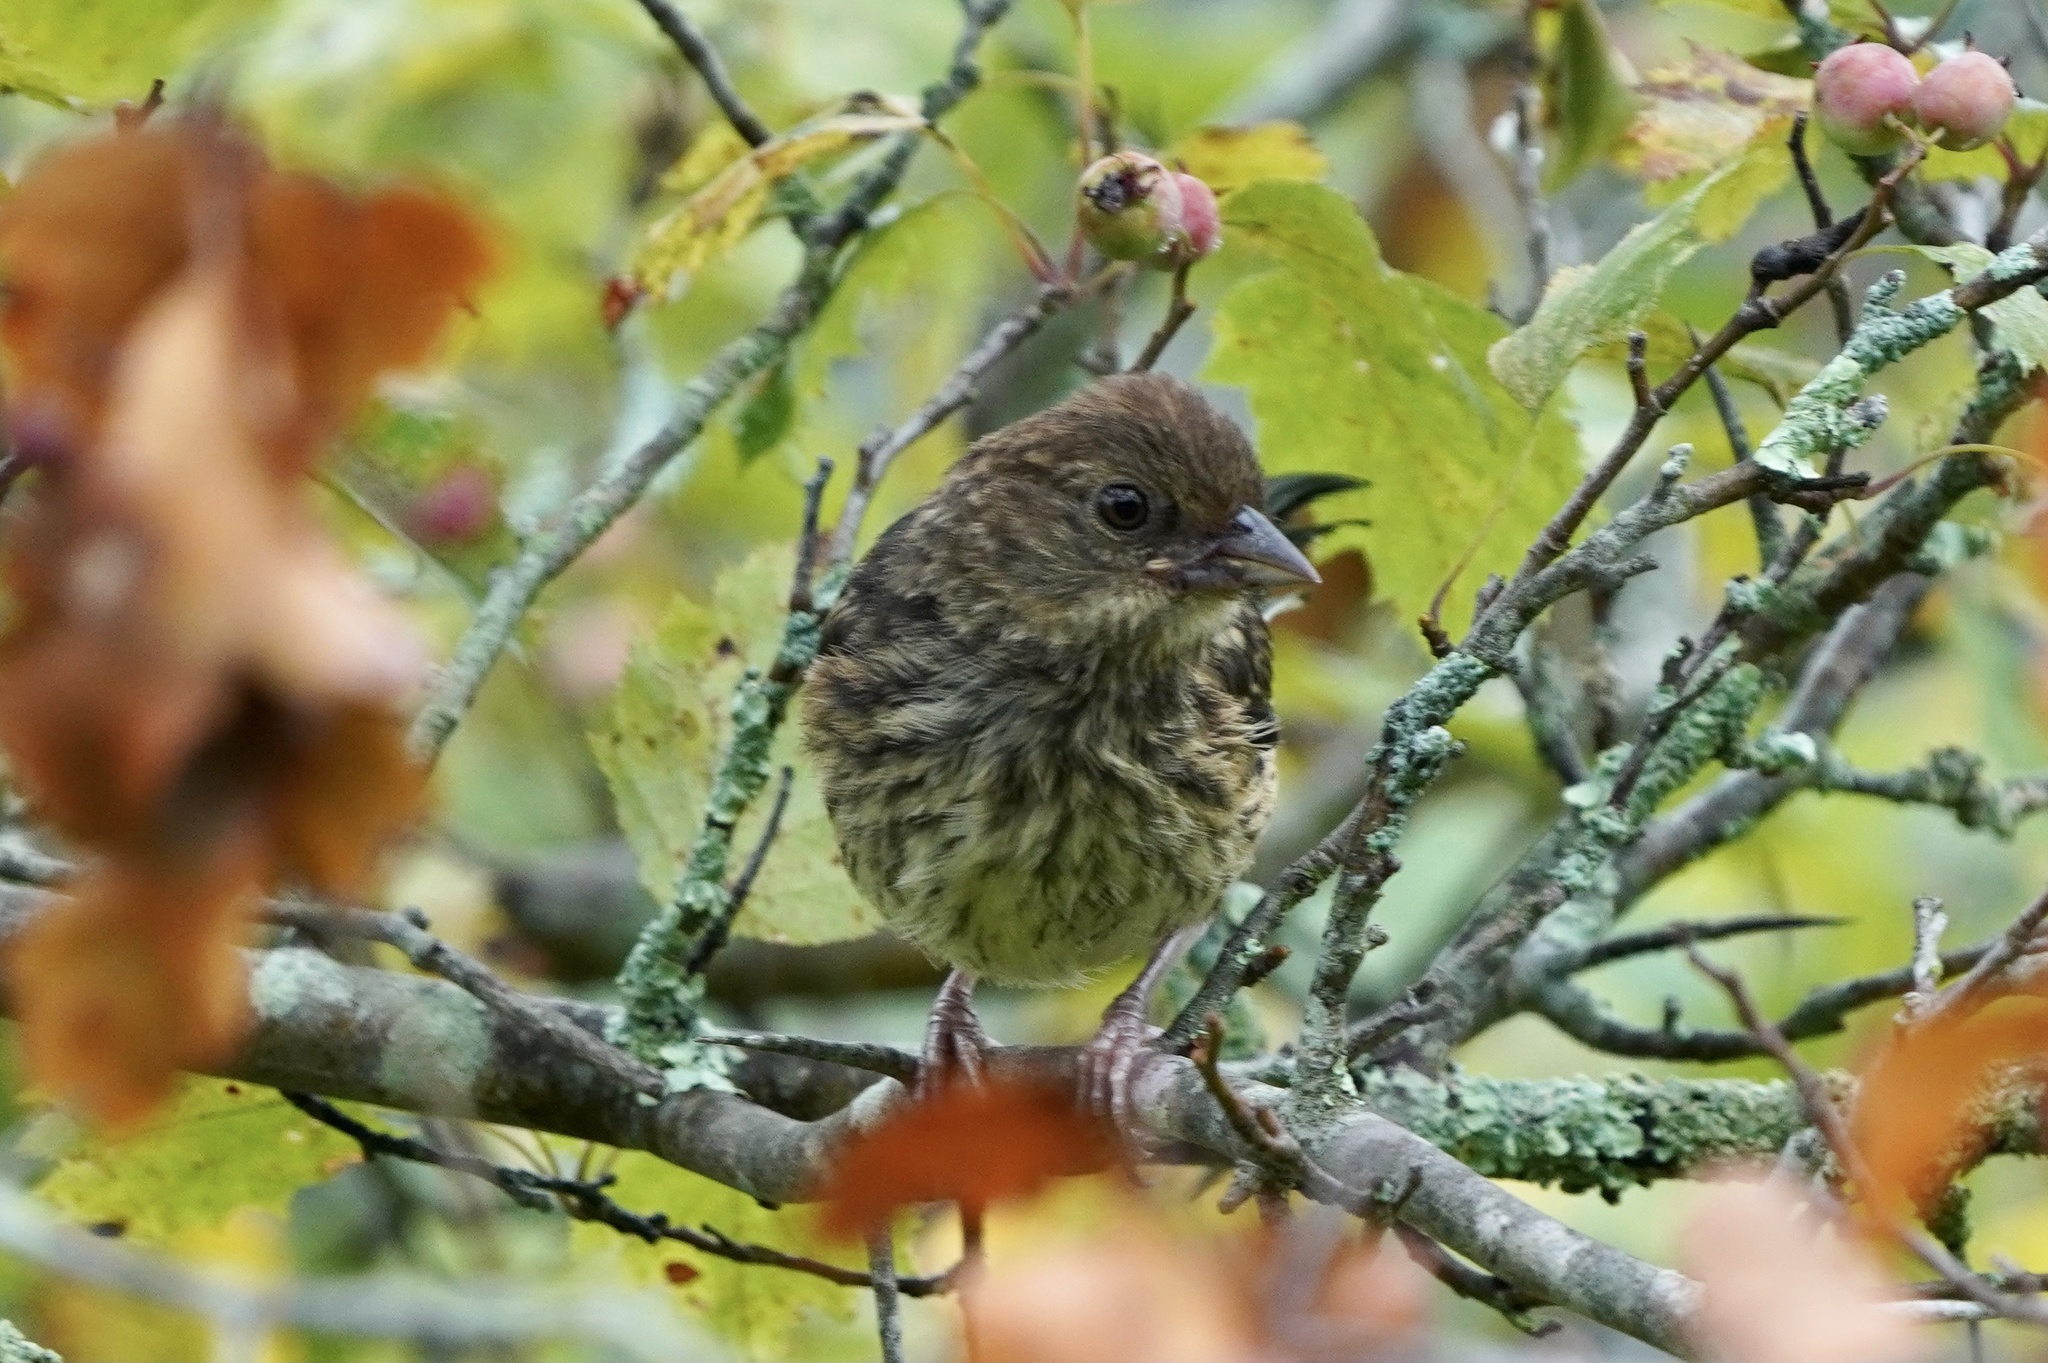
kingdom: Animalia
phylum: Chordata
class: Aves
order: Passeriformes
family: Passerellidae
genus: Pipilo
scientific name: Pipilo erythrophthalmus
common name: Eastern towhee
